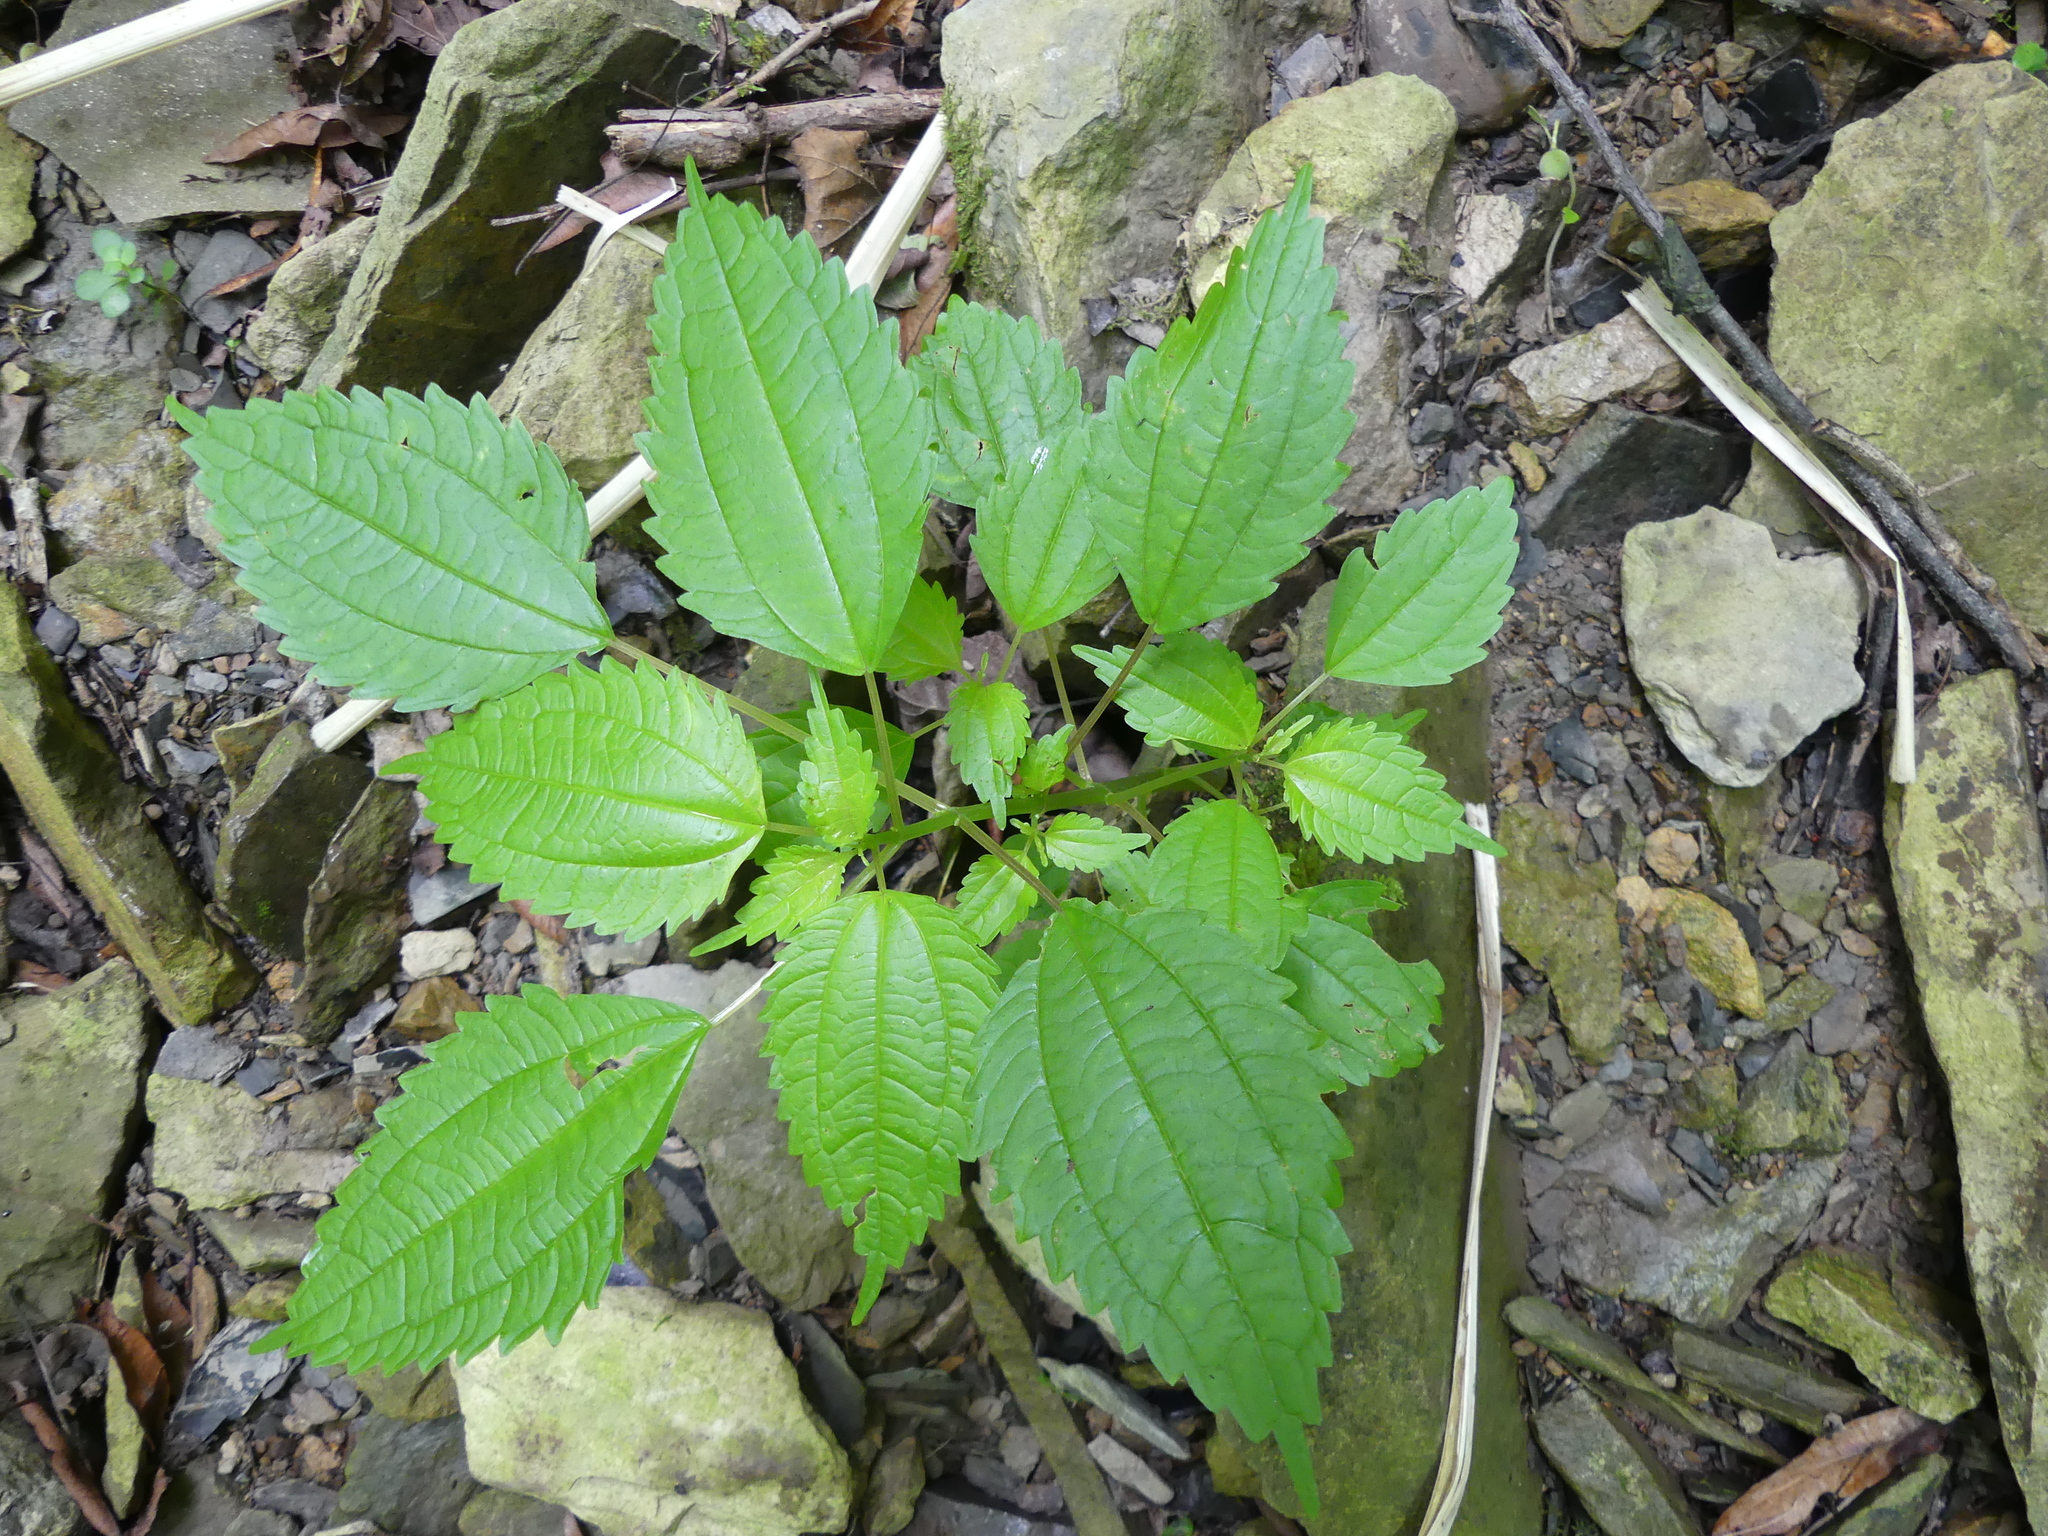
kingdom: Plantae
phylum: Tracheophyta
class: Magnoliopsida
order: Rosales
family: Urticaceae
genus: Pilea
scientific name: Pilea pumila
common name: Clearweed
